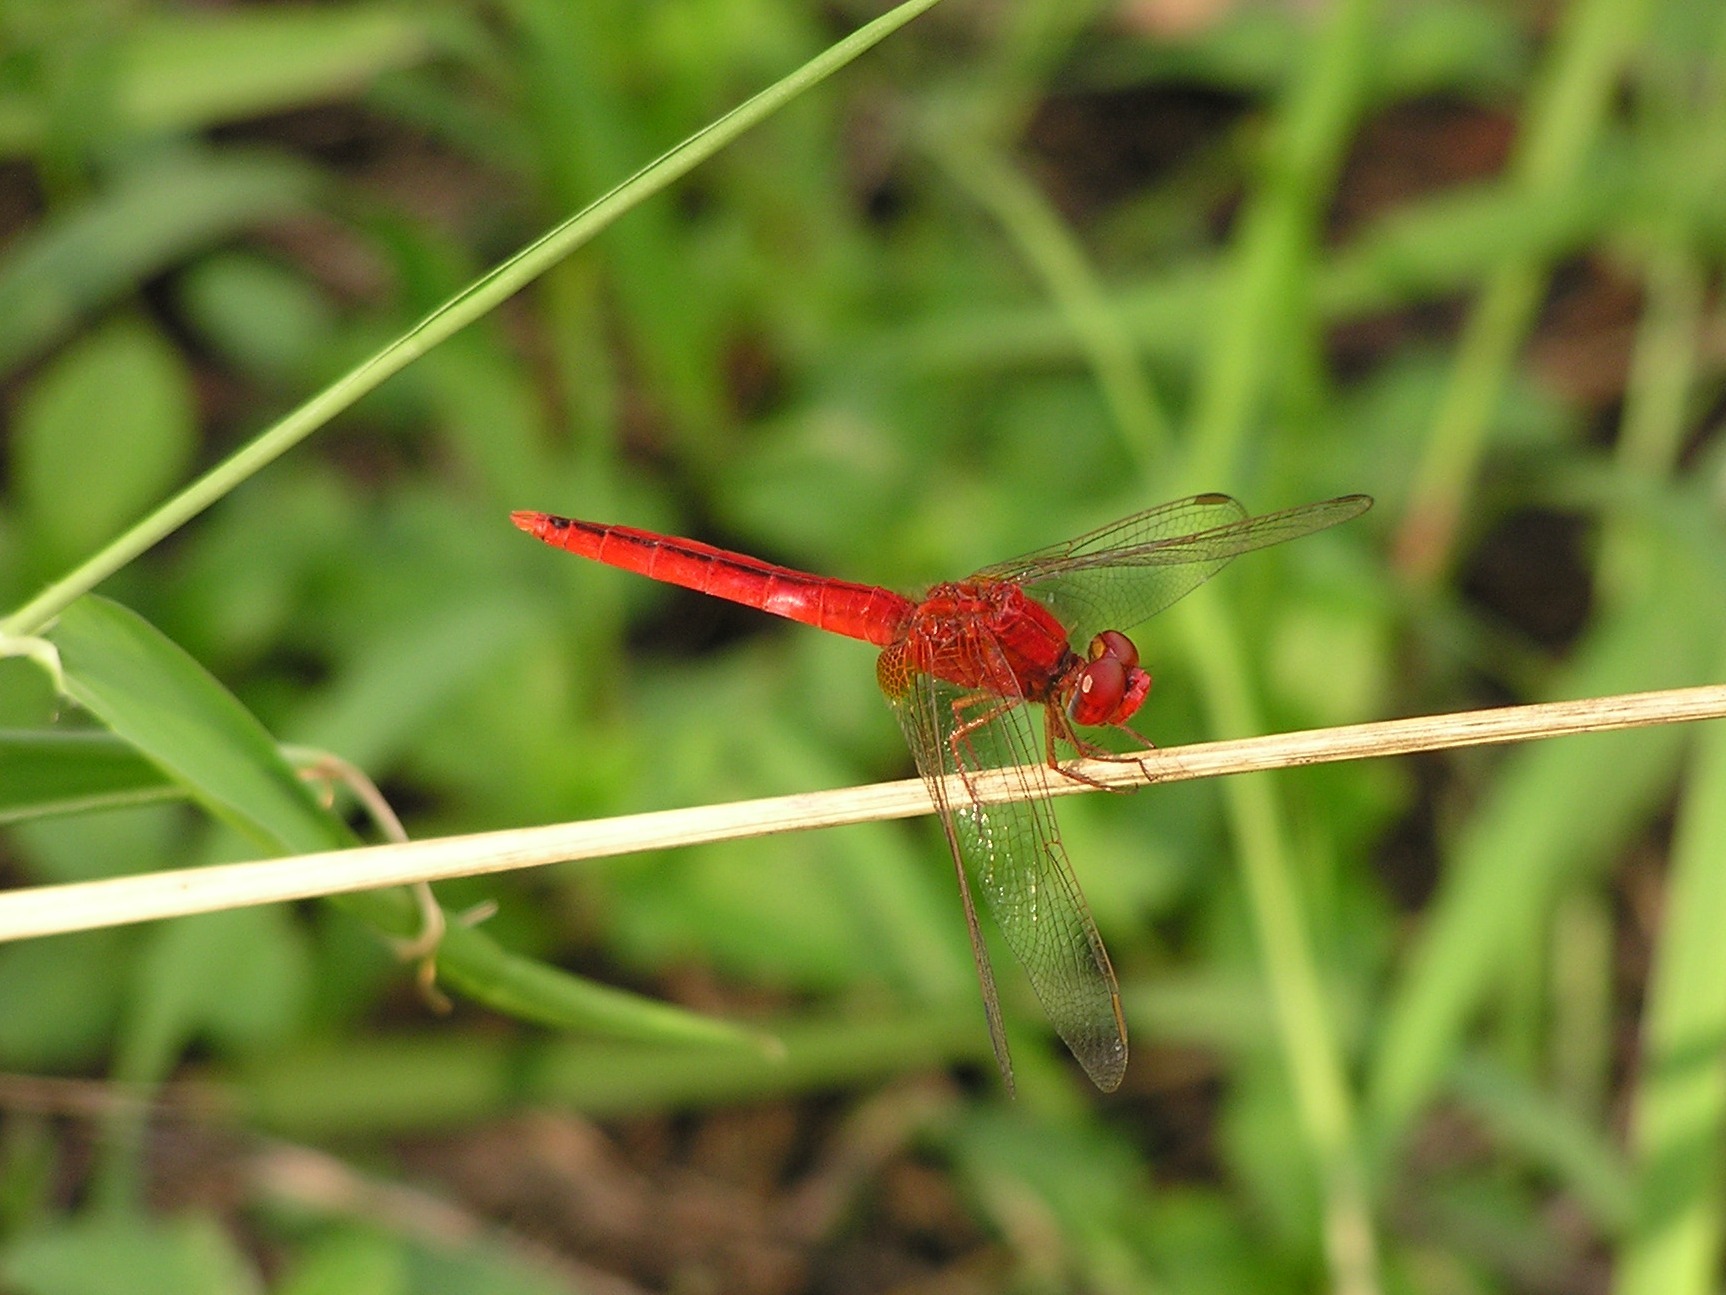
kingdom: Animalia
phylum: Arthropoda
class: Insecta
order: Odonata
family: Libellulidae
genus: Crocothemis
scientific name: Crocothemis servilia
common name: Scarlet skimmer
